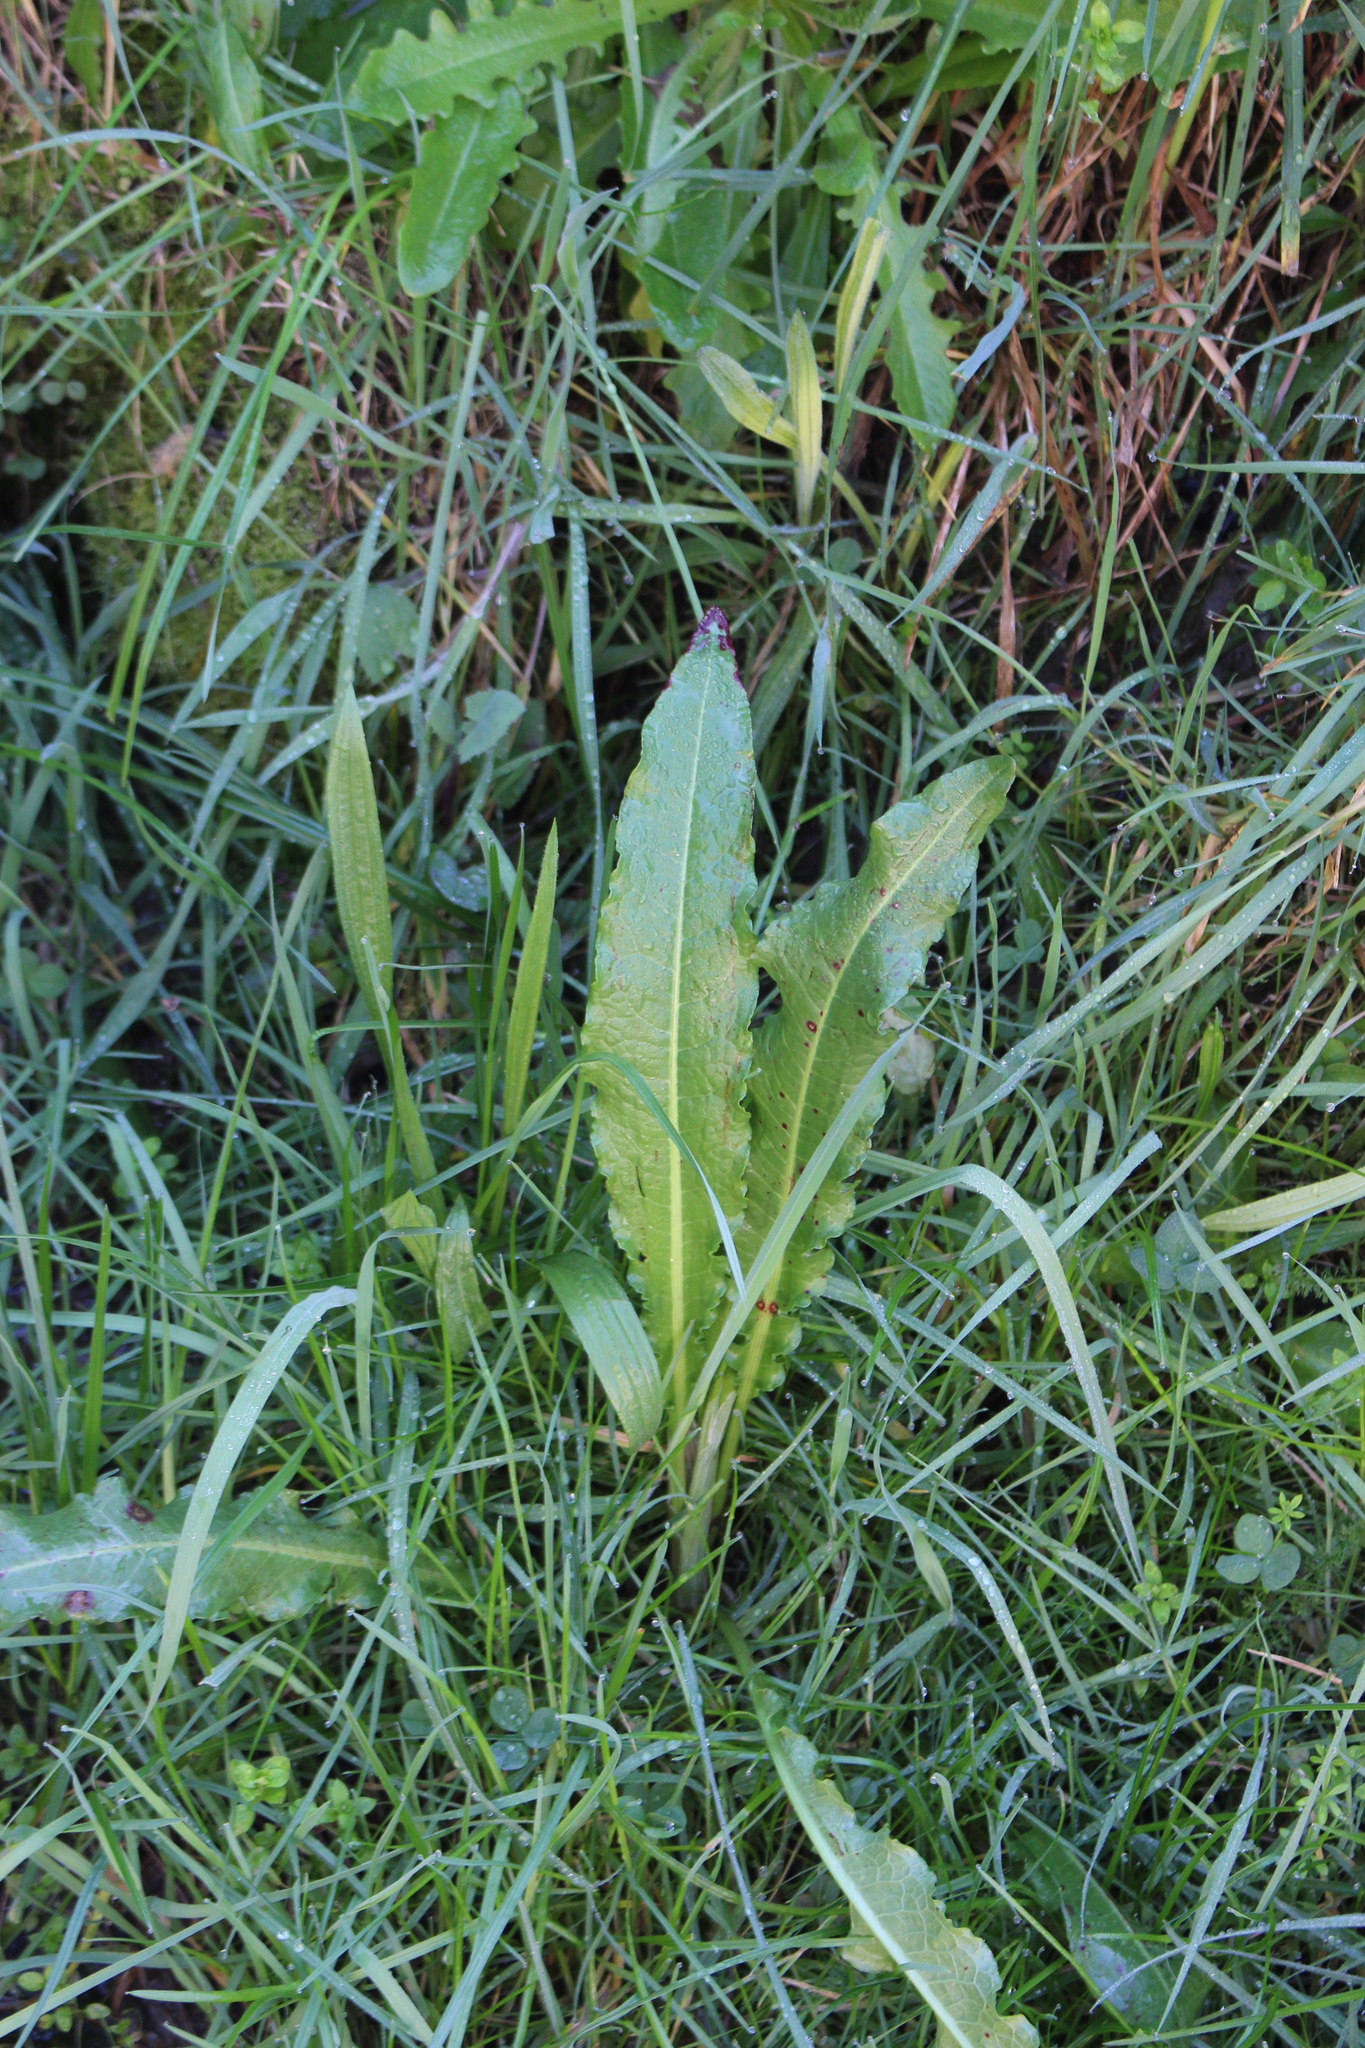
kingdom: Plantae
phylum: Tracheophyta
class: Magnoliopsida
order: Caryophyllales
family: Polygonaceae
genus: Rumex
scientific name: Rumex crispus
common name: Curled dock
